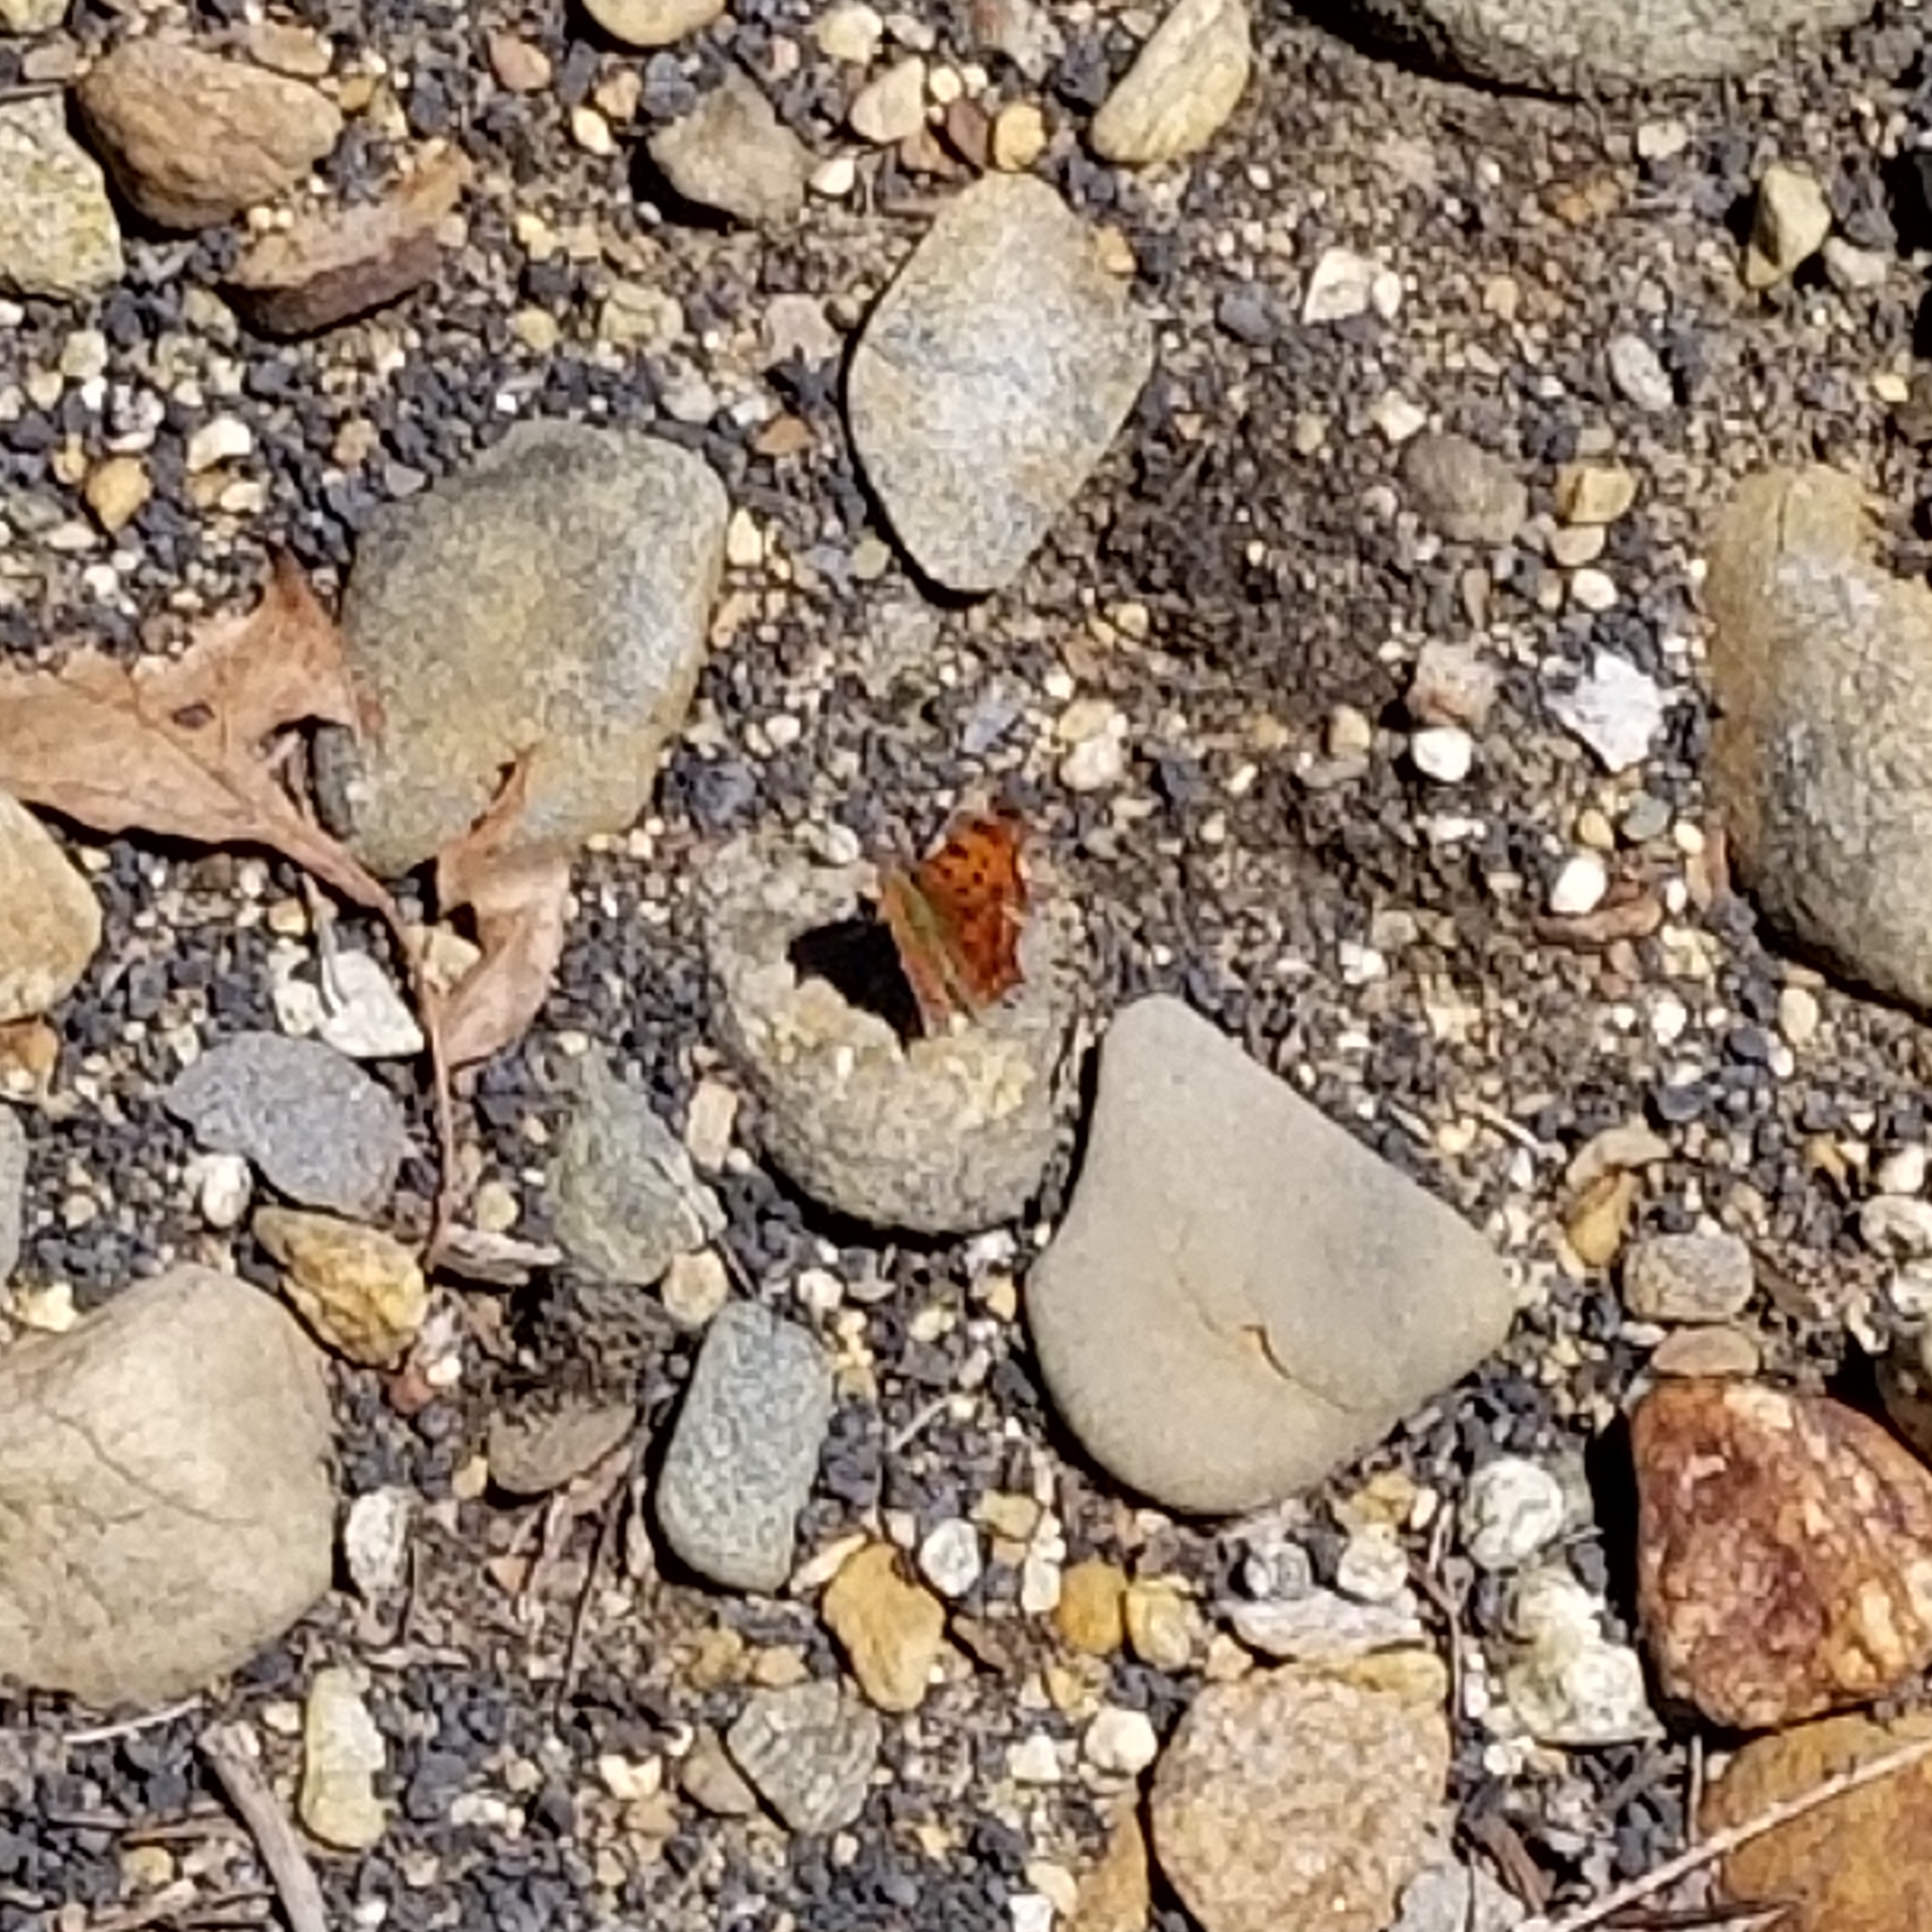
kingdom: Animalia
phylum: Arthropoda
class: Insecta
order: Lepidoptera
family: Nymphalidae
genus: Polygonia
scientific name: Polygonia comma
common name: Eastern comma
